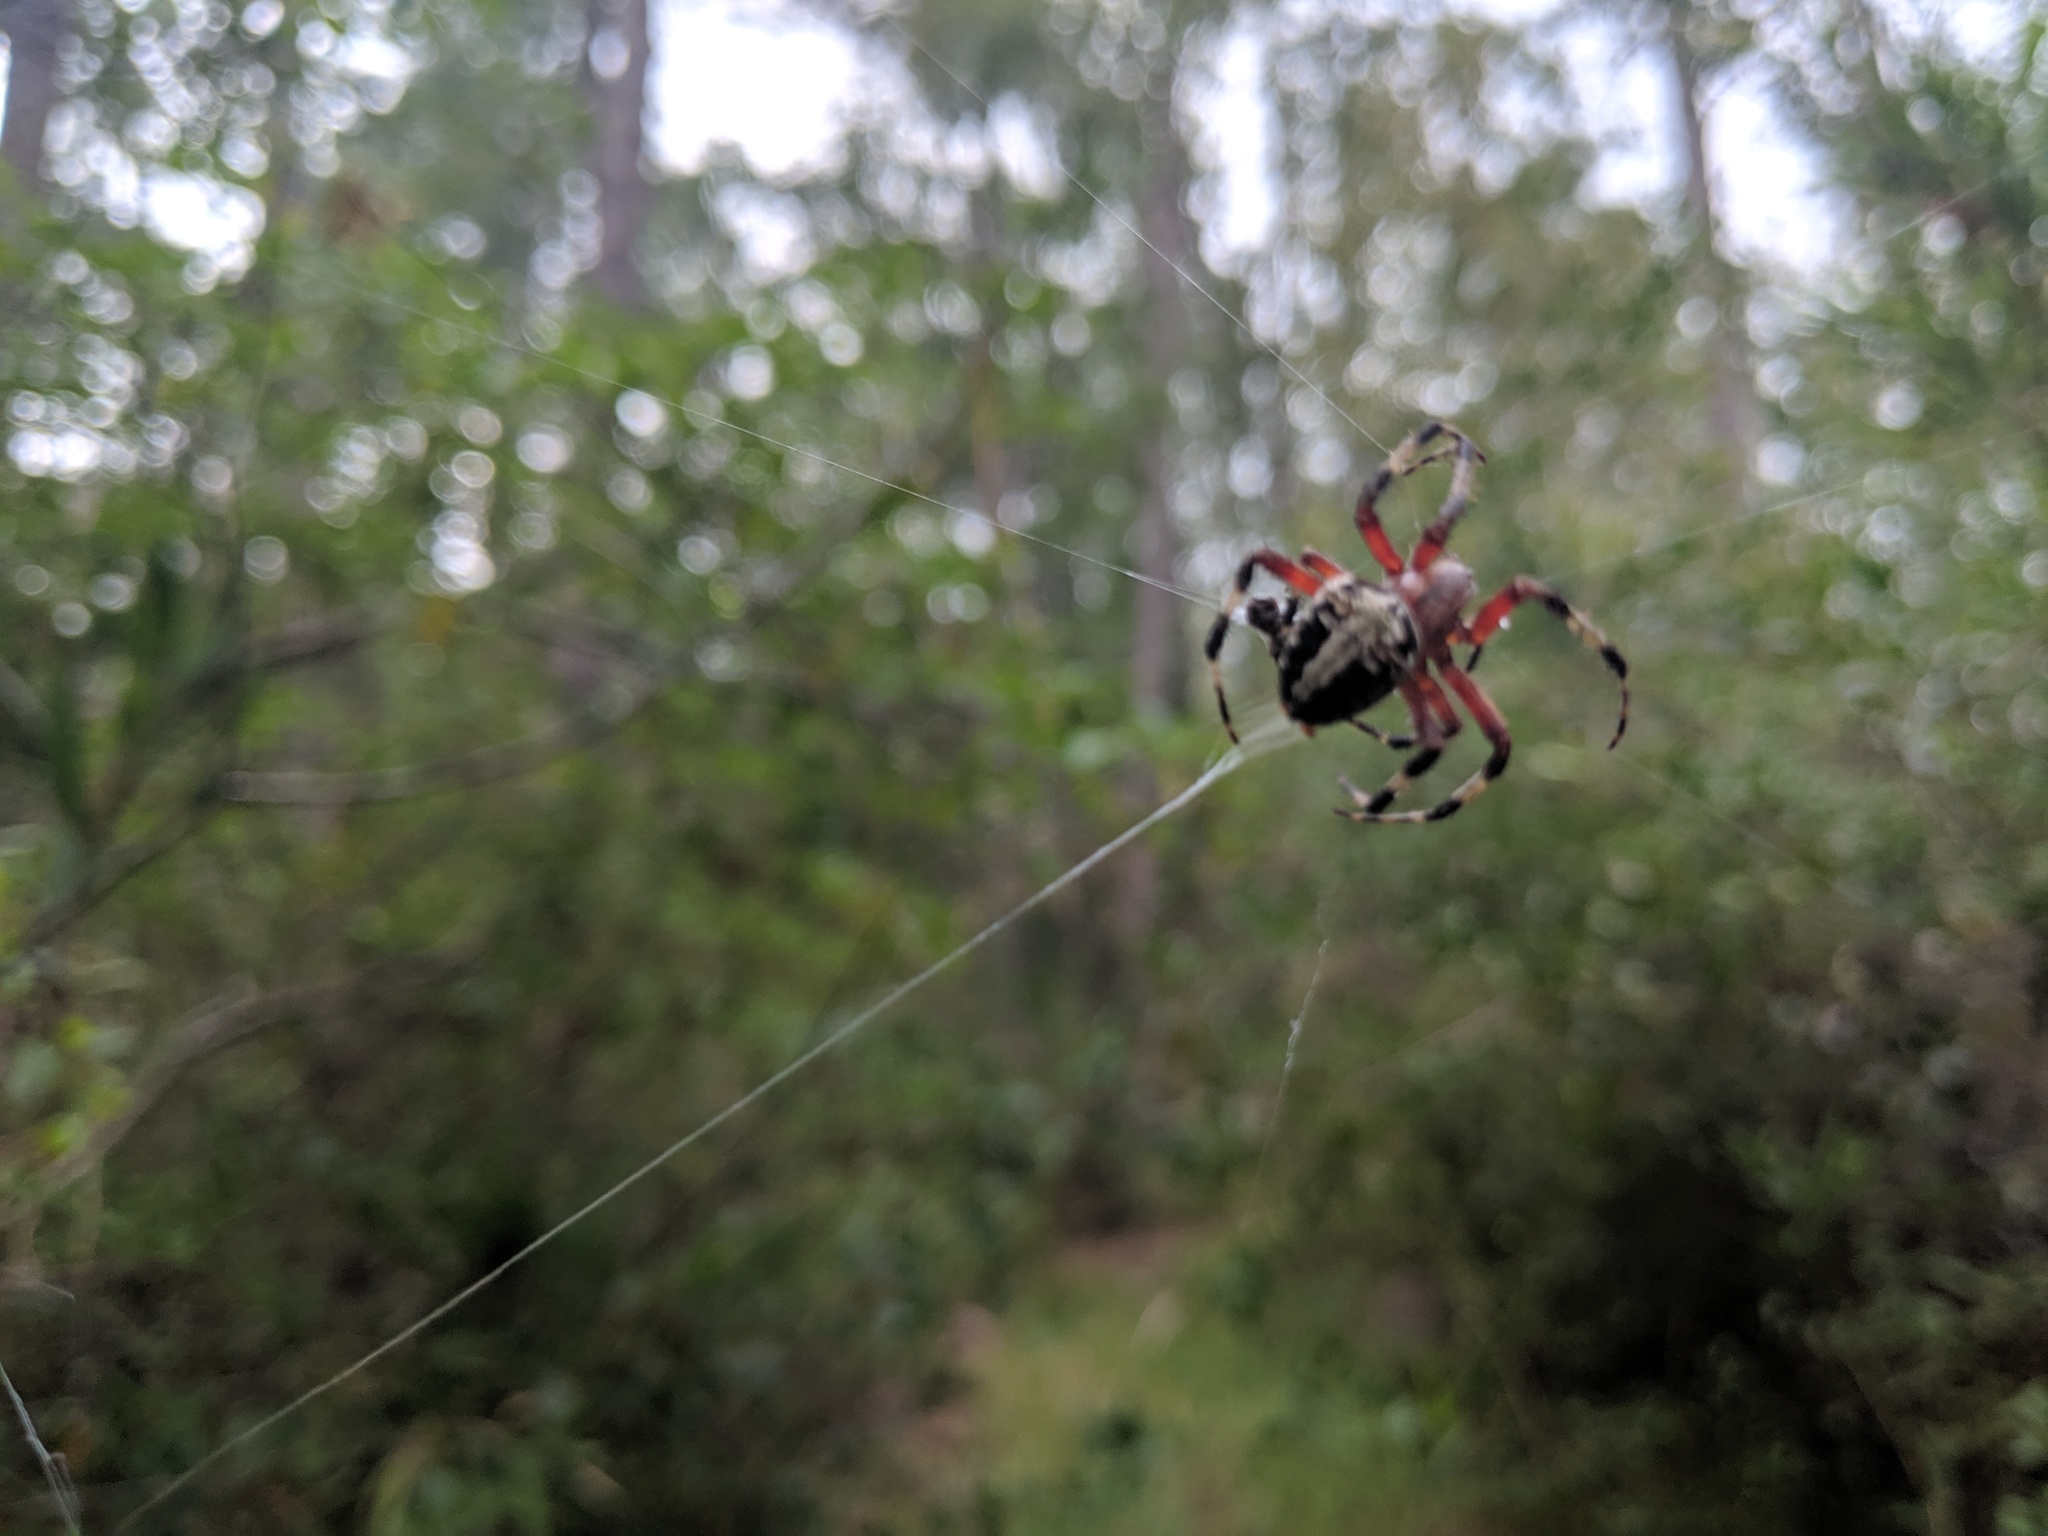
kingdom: Animalia
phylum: Arthropoda
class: Arachnida
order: Araneae
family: Araneidae
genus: Neoscona
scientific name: Neoscona domiciliorum
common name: Red-femured spotted orbweaver
